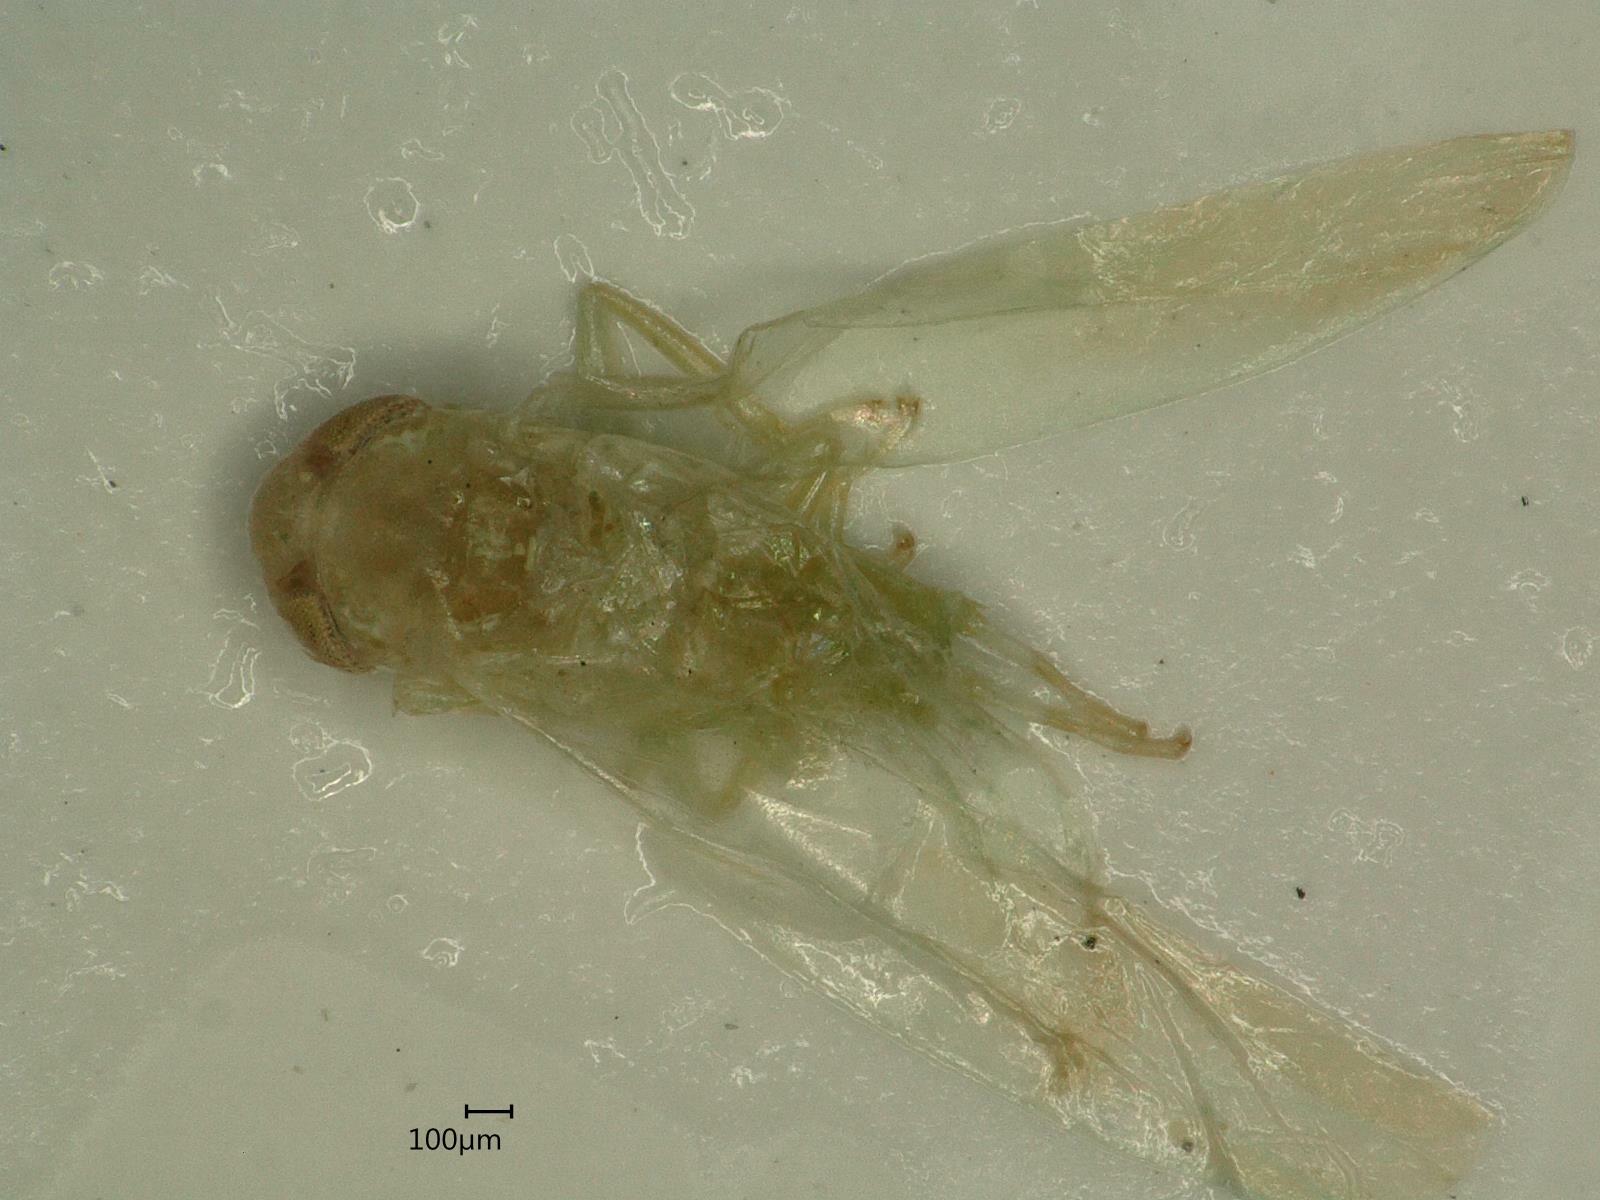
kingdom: Animalia
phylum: Arthropoda
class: Insecta
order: Hemiptera
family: Cicadellidae
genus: Hebata
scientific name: Hebata vitis
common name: The smaller green leafhopper
